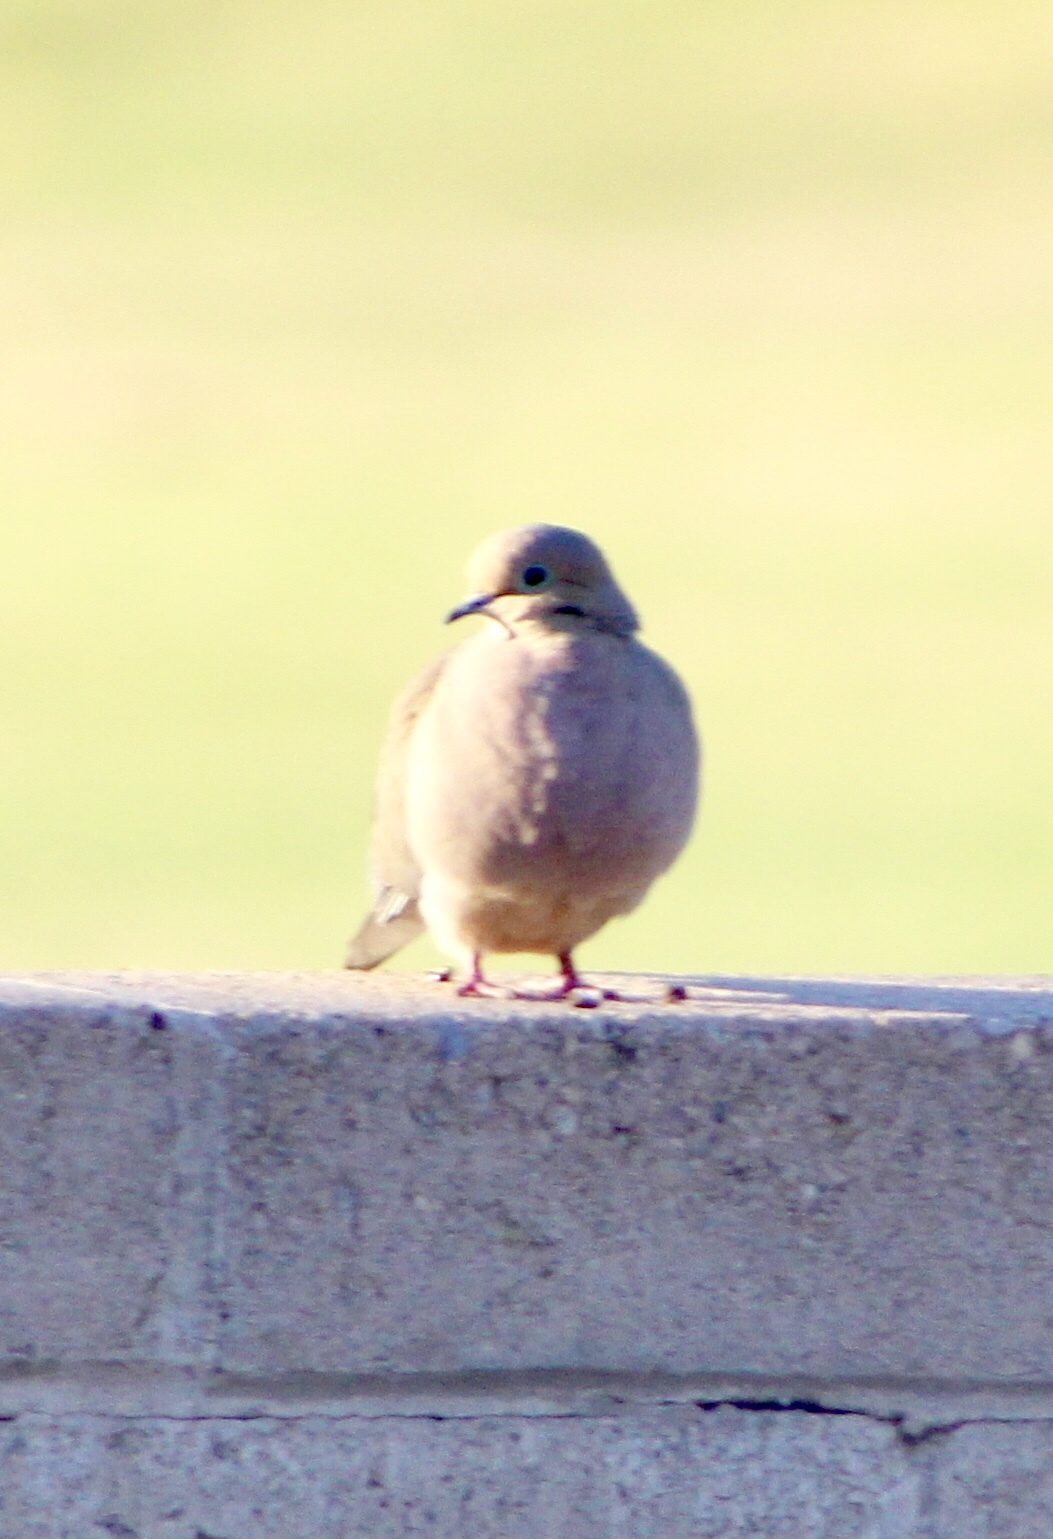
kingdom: Animalia
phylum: Chordata
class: Aves
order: Columbiformes
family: Columbidae
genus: Zenaida
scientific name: Zenaida macroura
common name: Mourning dove
